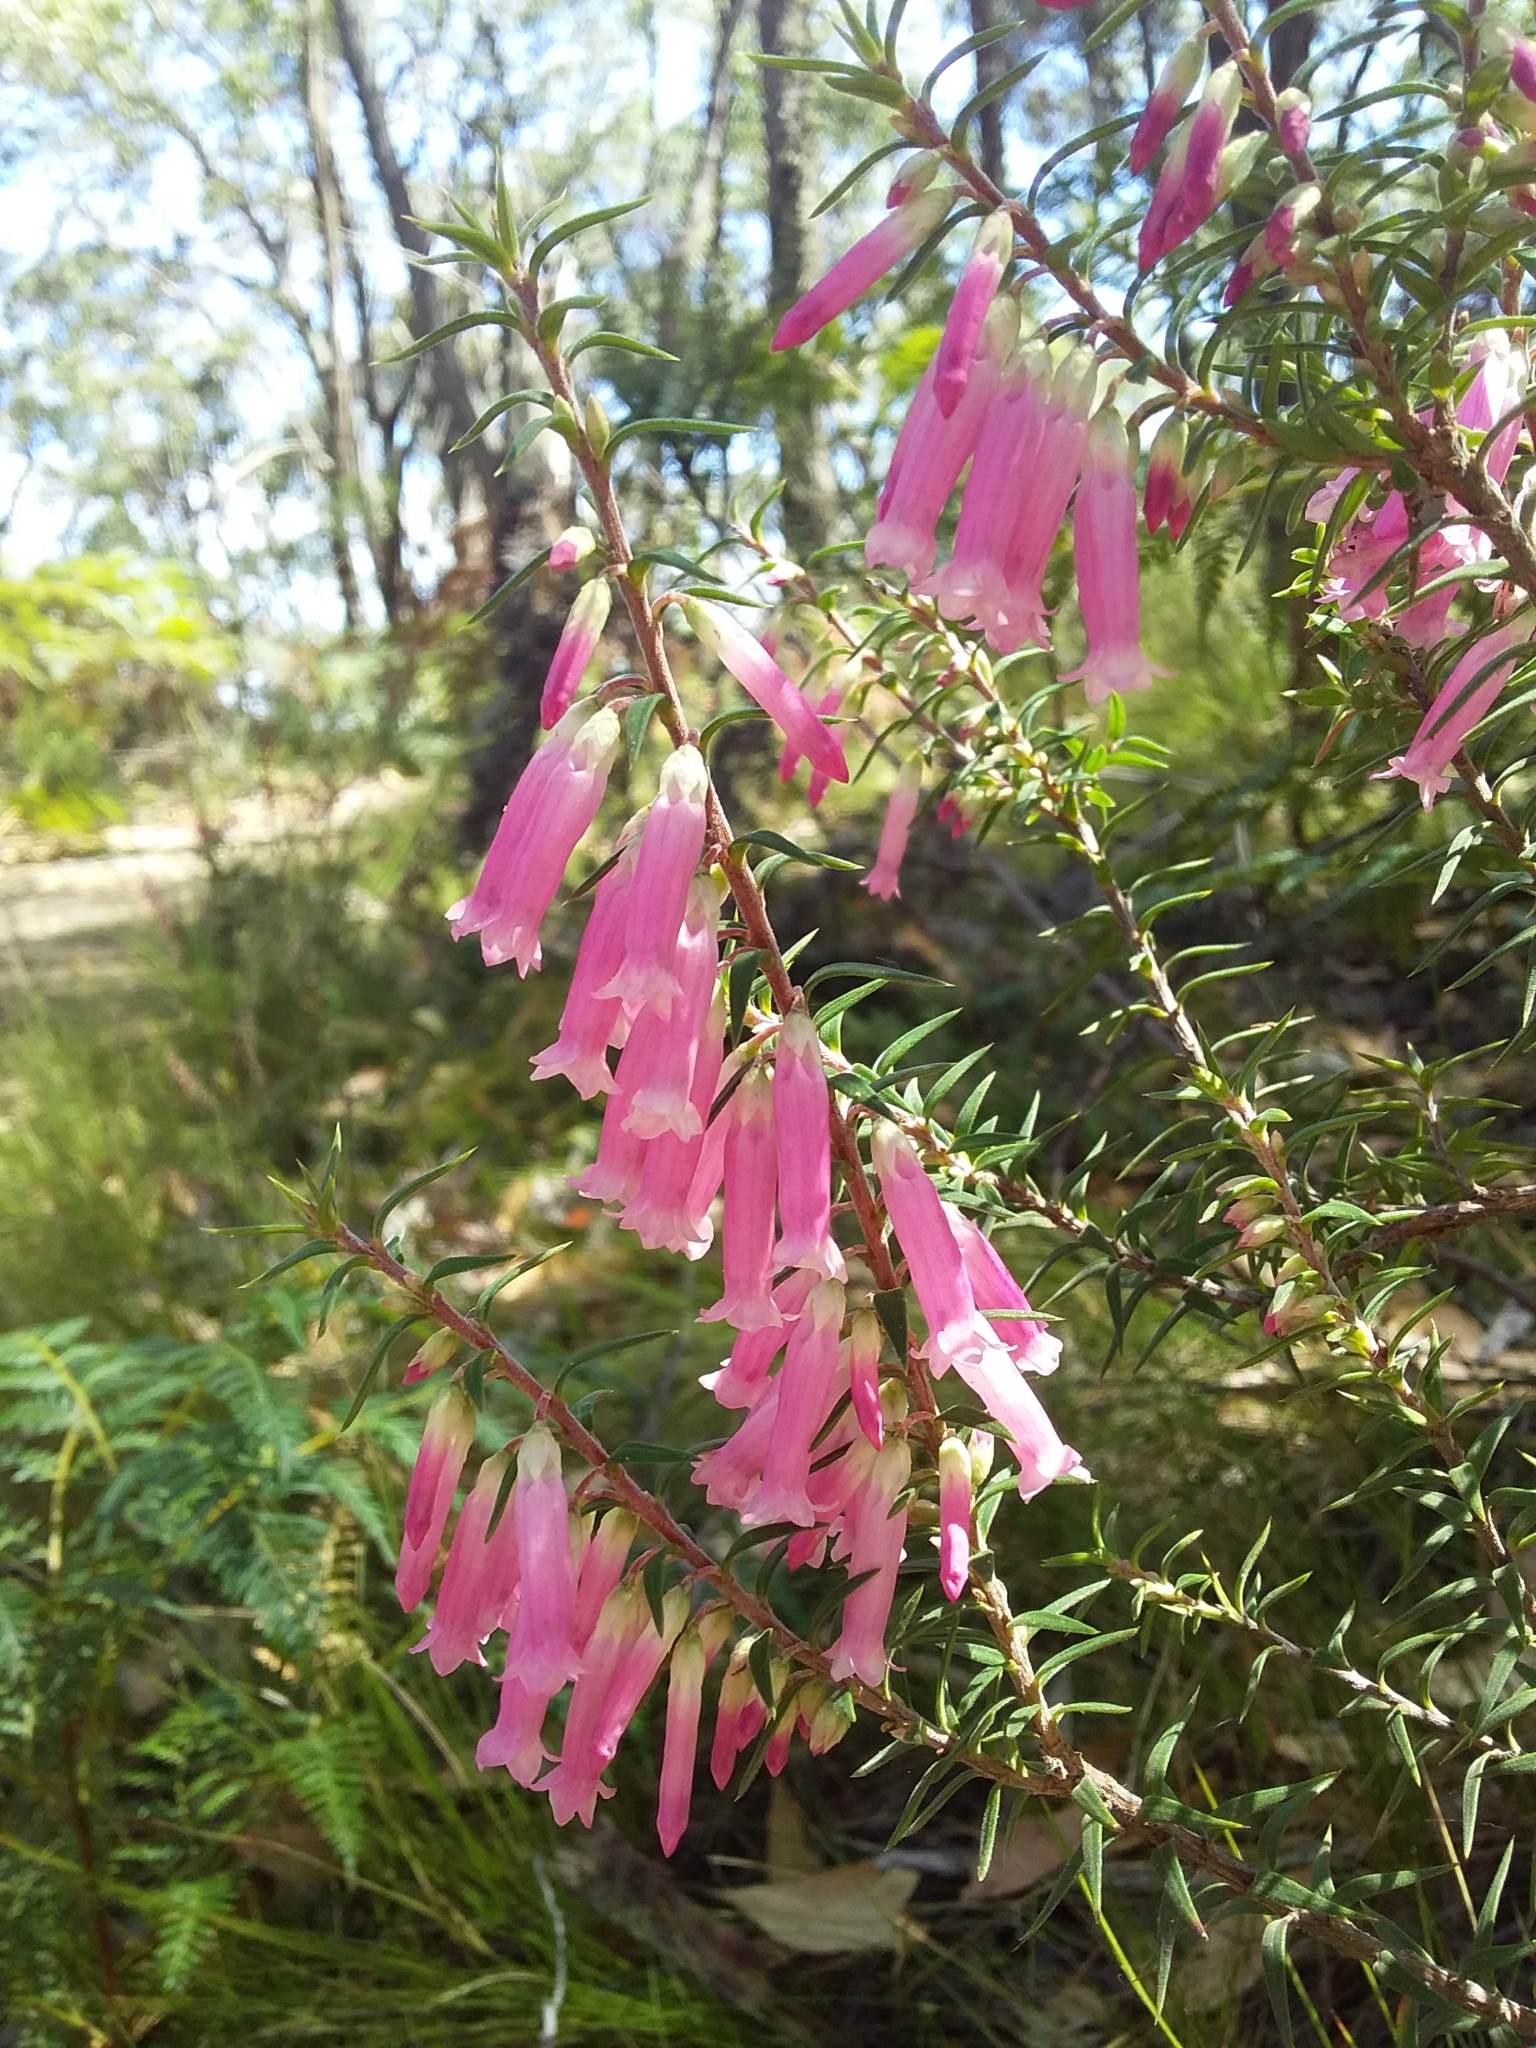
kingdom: Plantae
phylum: Tracheophyta
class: Magnoliopsida
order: Ericales
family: Ericaceae
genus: Epacris
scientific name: Epacris impressa
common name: Common-heath
